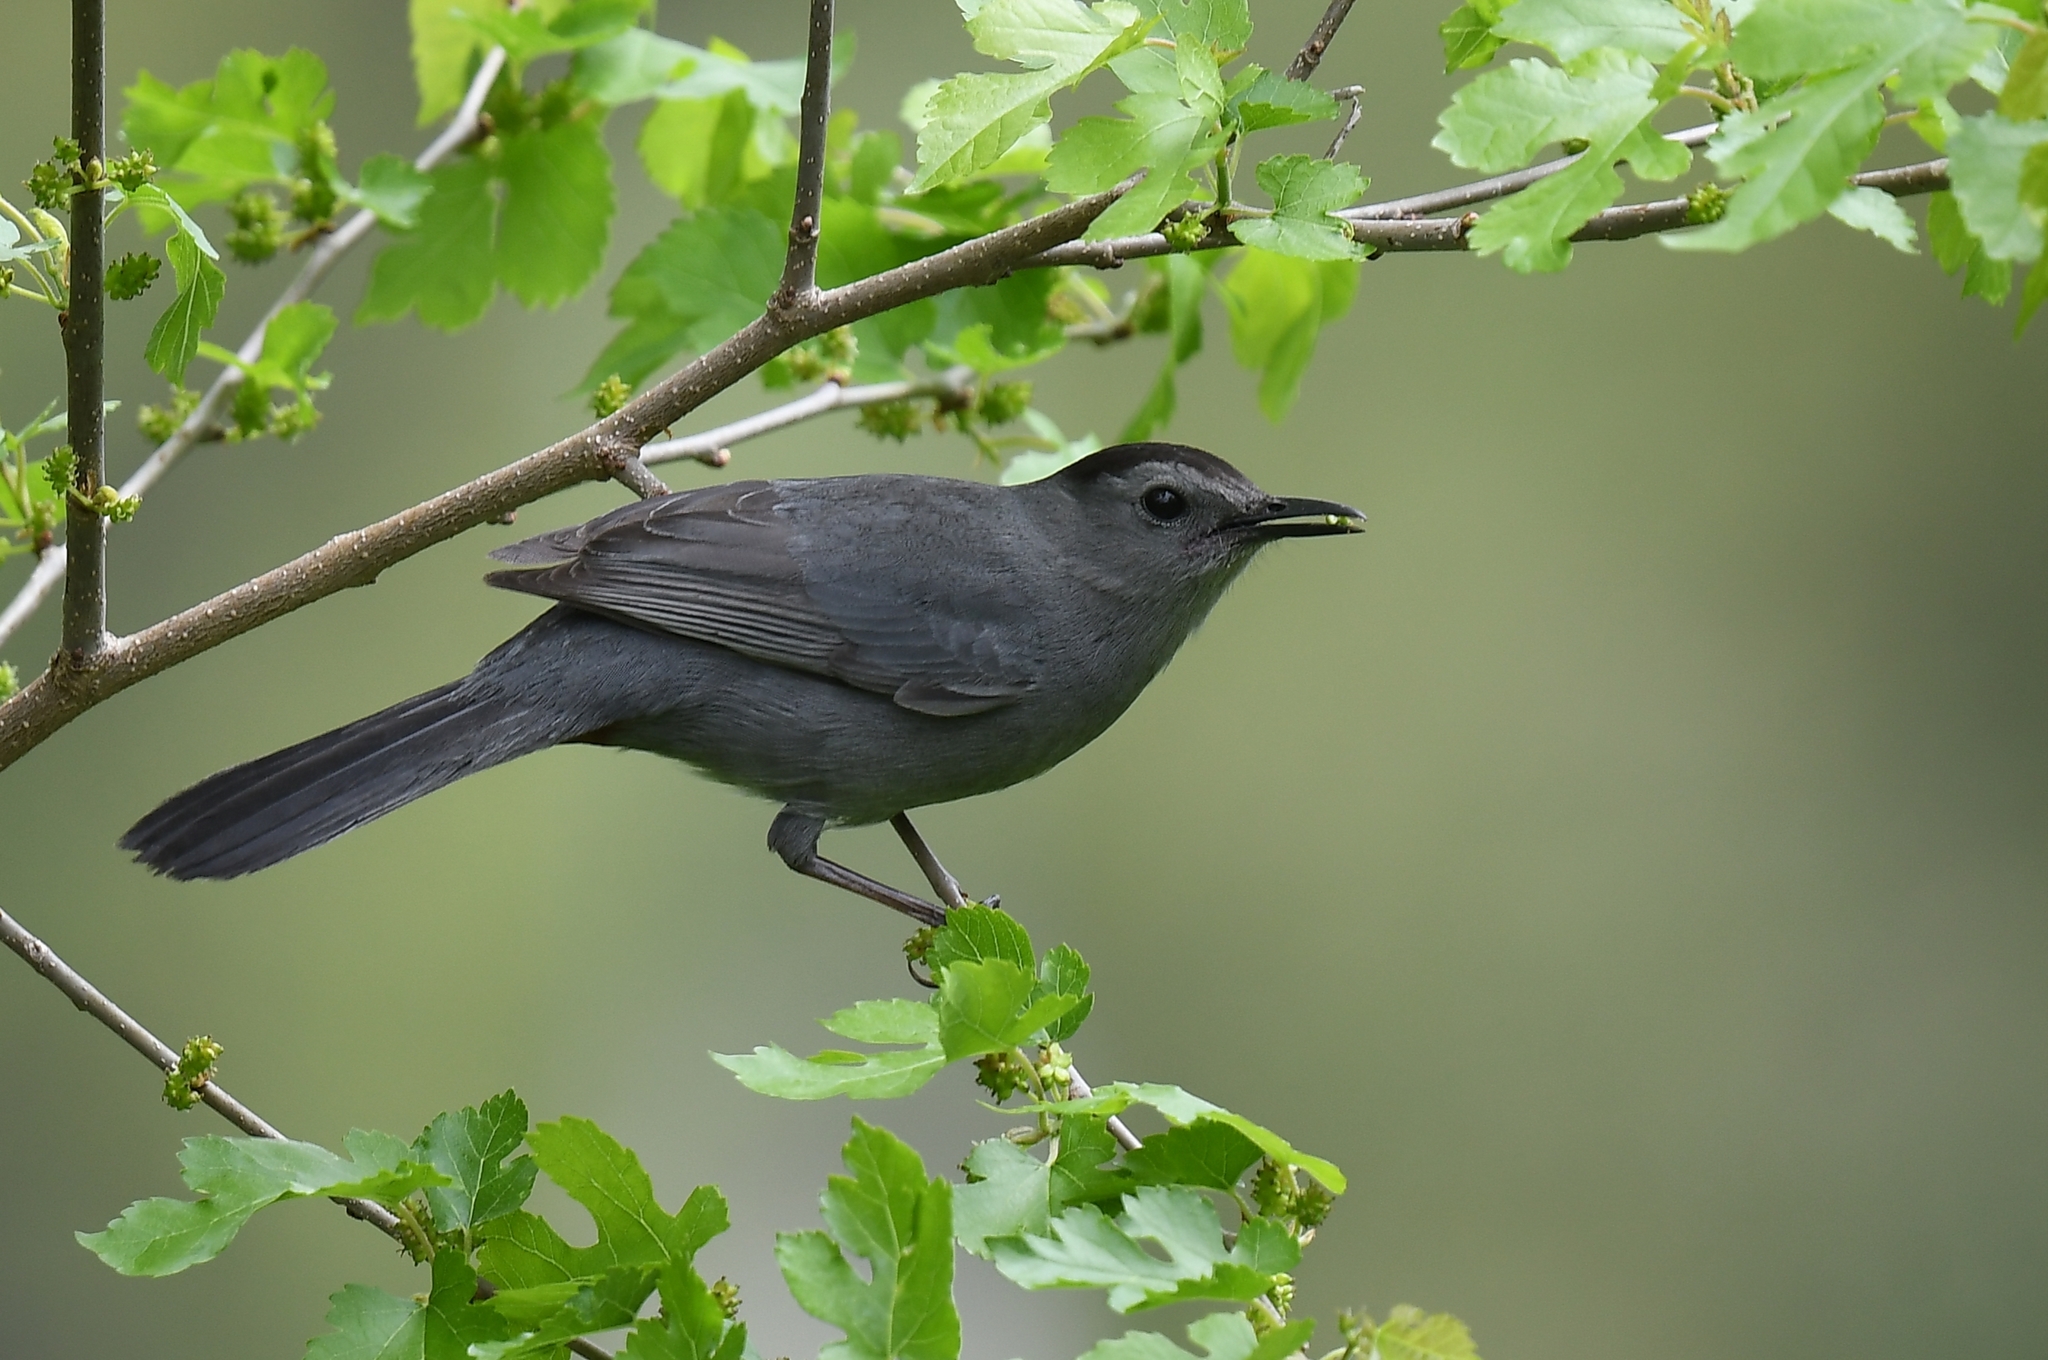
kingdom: Animalia
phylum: Chordata
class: Aves
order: Passeriformes
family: Mimidae
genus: Dumetella
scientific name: Dumetella carolinensis
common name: Gray catbird
